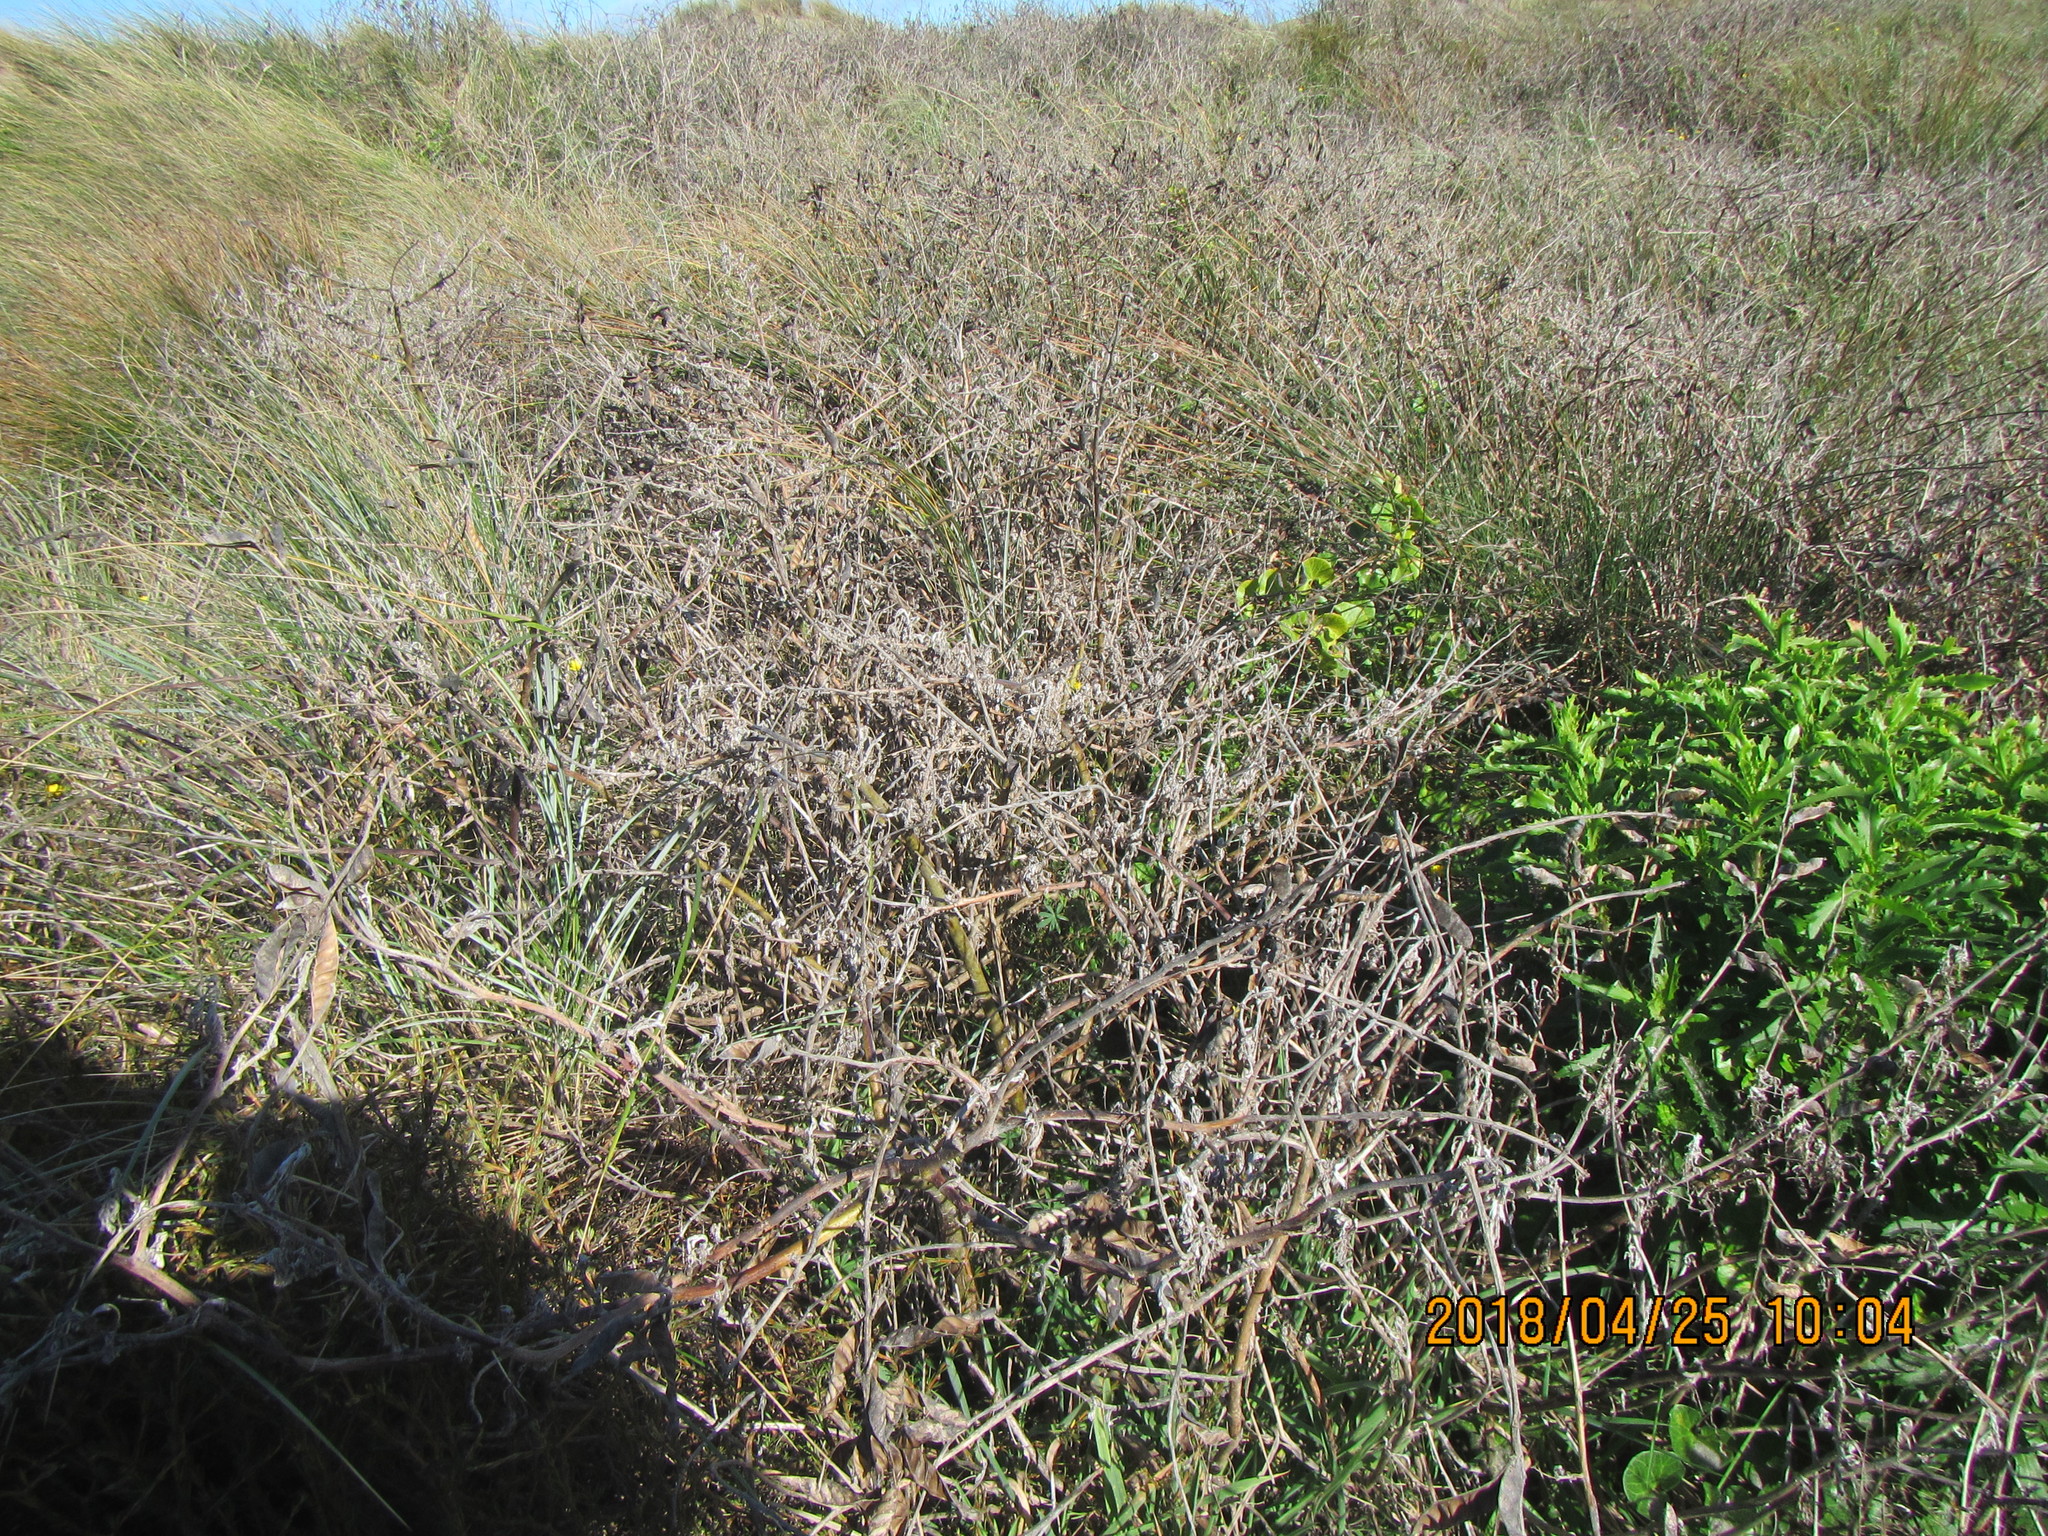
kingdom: Plantae
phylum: Tracheophyta
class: Magnoliopsida
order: Asterales
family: Asteraceae
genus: Senecio
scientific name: Senecio glastifolius
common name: Woad-leaved ragwort
